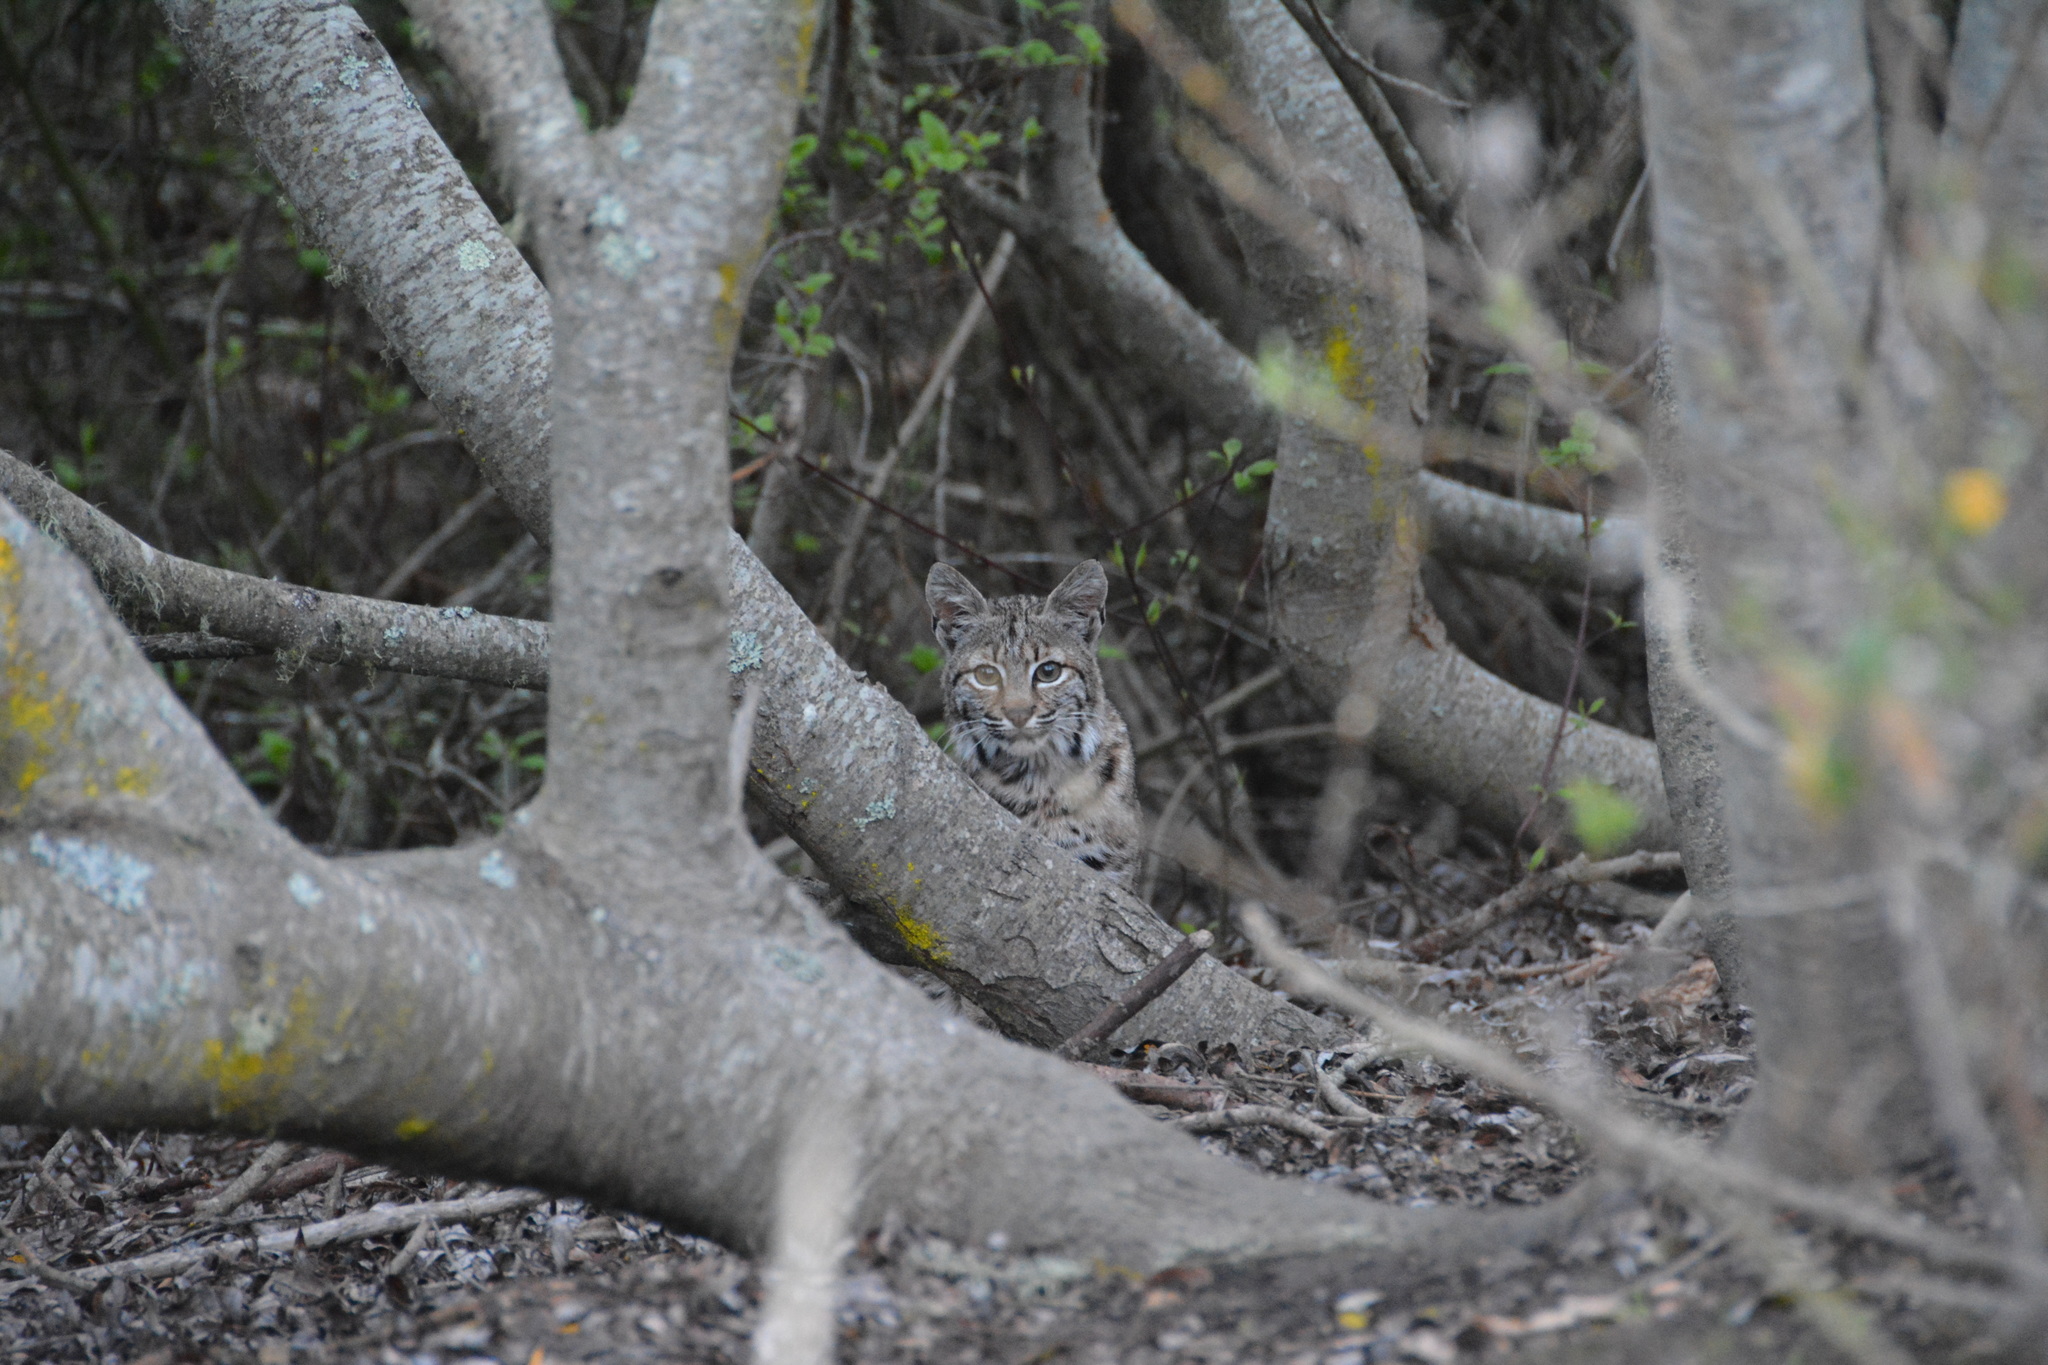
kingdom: Animalia
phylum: Chordata
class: Mammalia
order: Carnivora
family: Felidae
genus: Lynx
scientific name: Lynx rufus
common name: Bobcat
